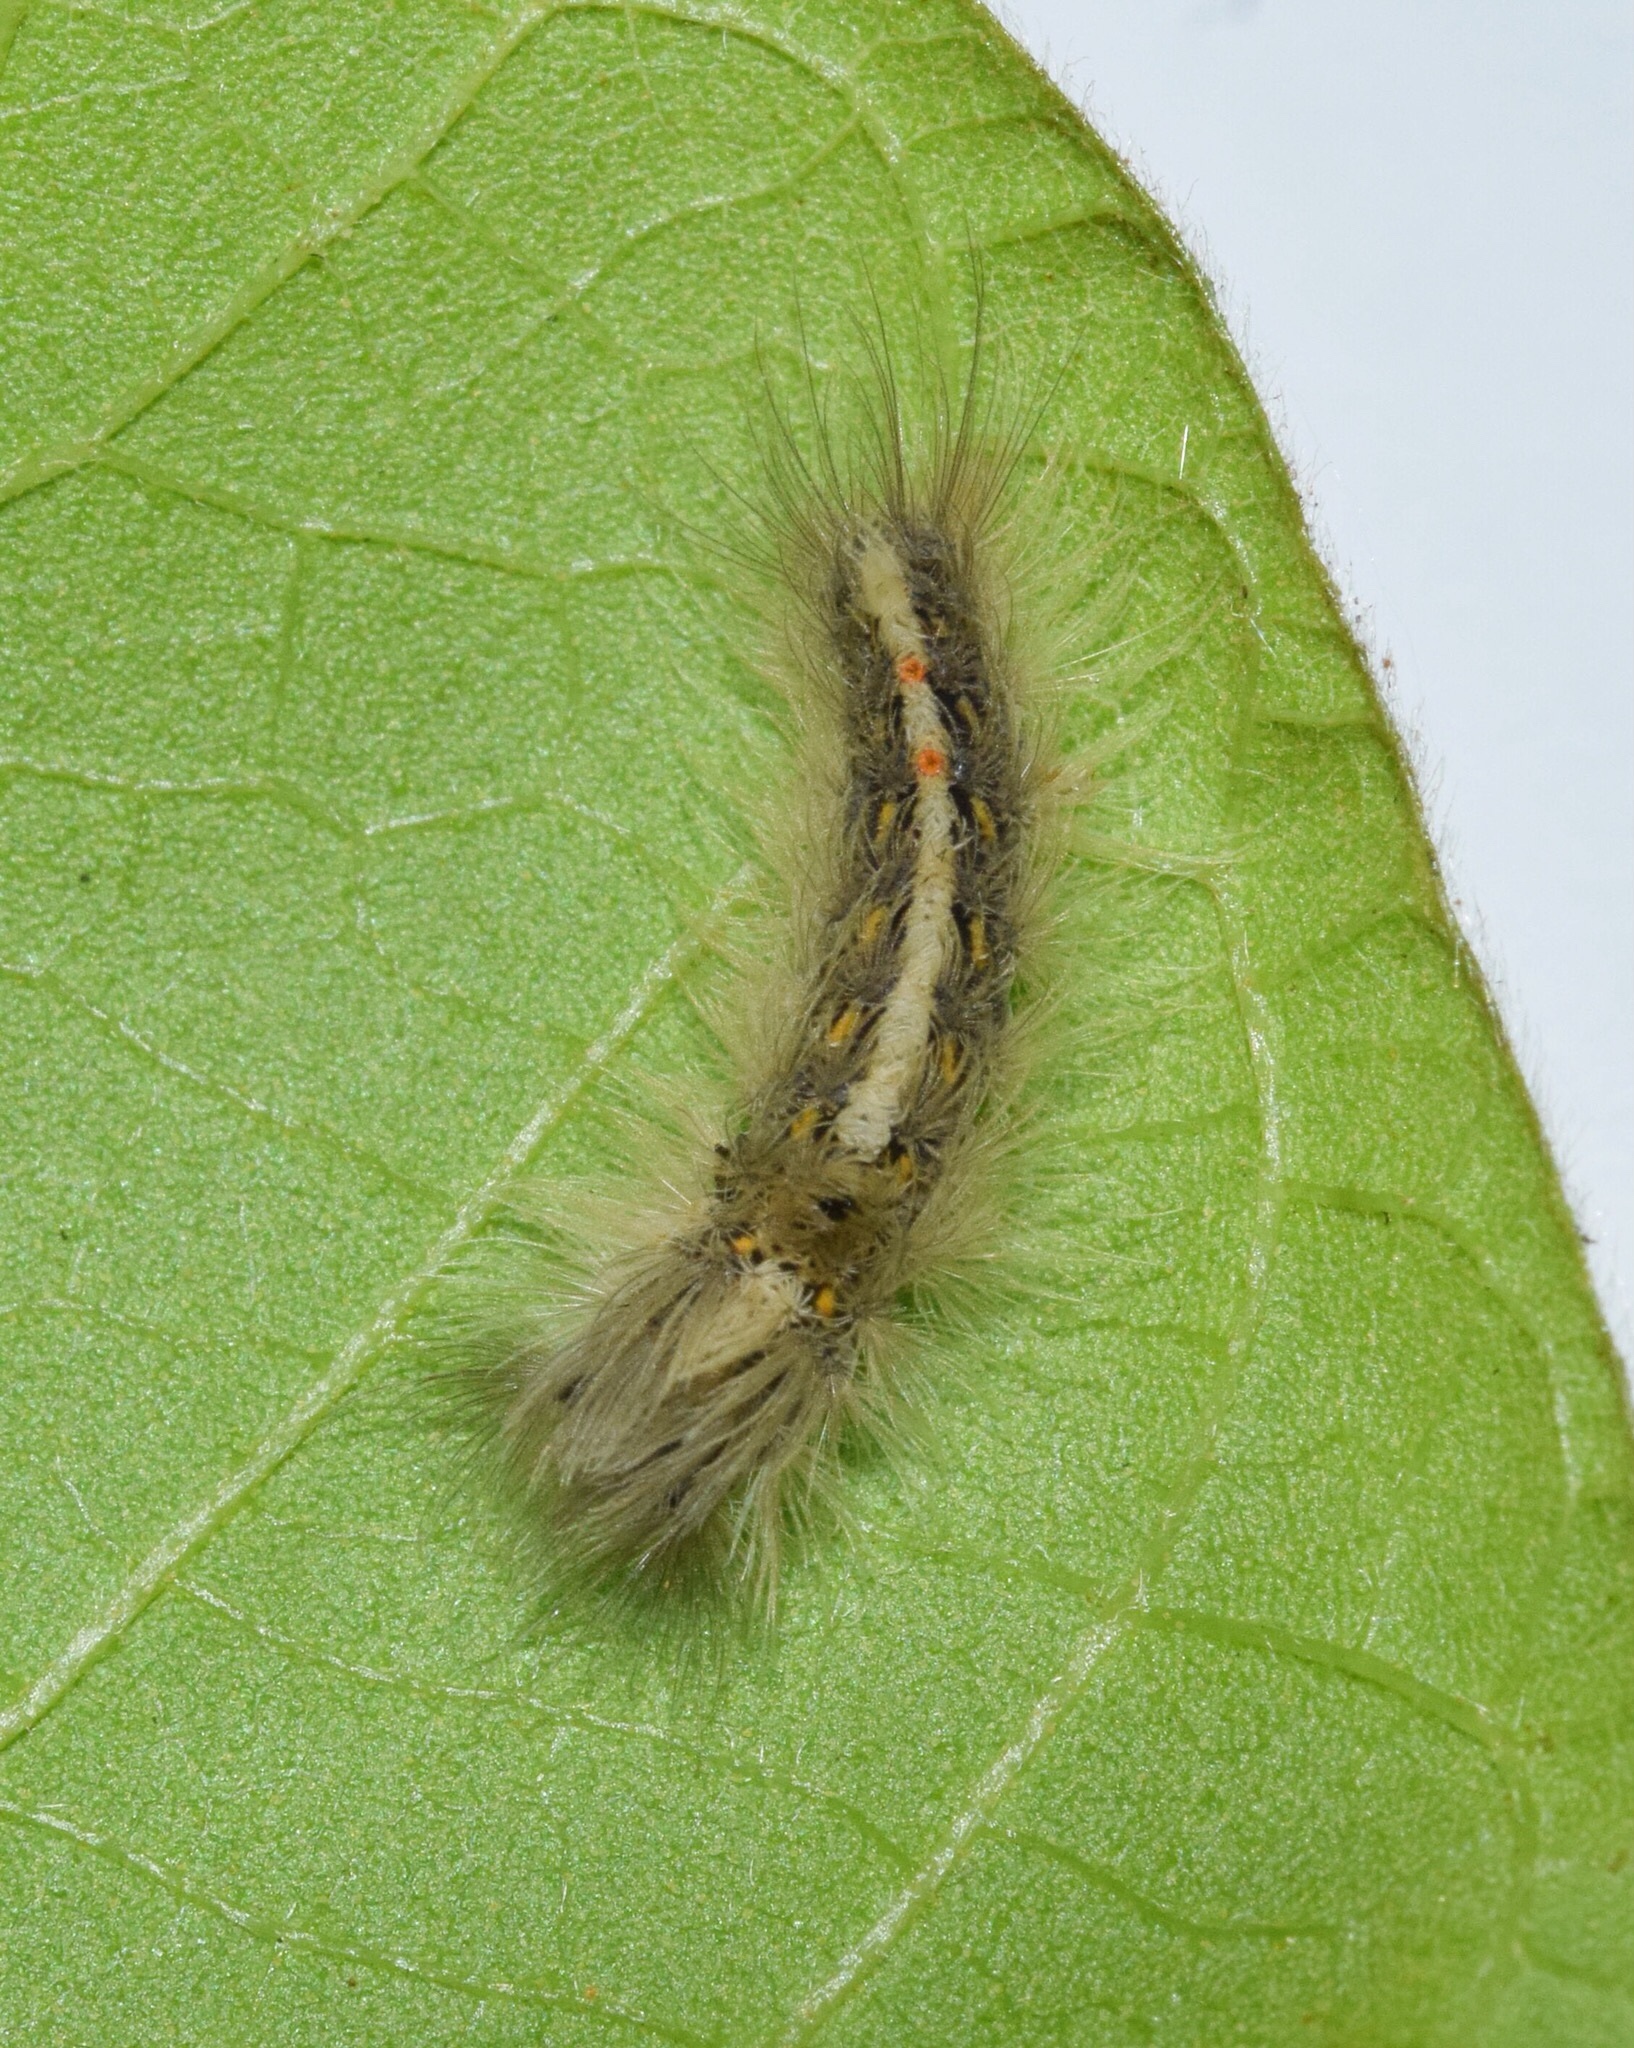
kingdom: Animalia
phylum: Arthropoda
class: Insecta
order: Lepidoptera
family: Erebidae
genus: Euproctis
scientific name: Euproctis punctifera
